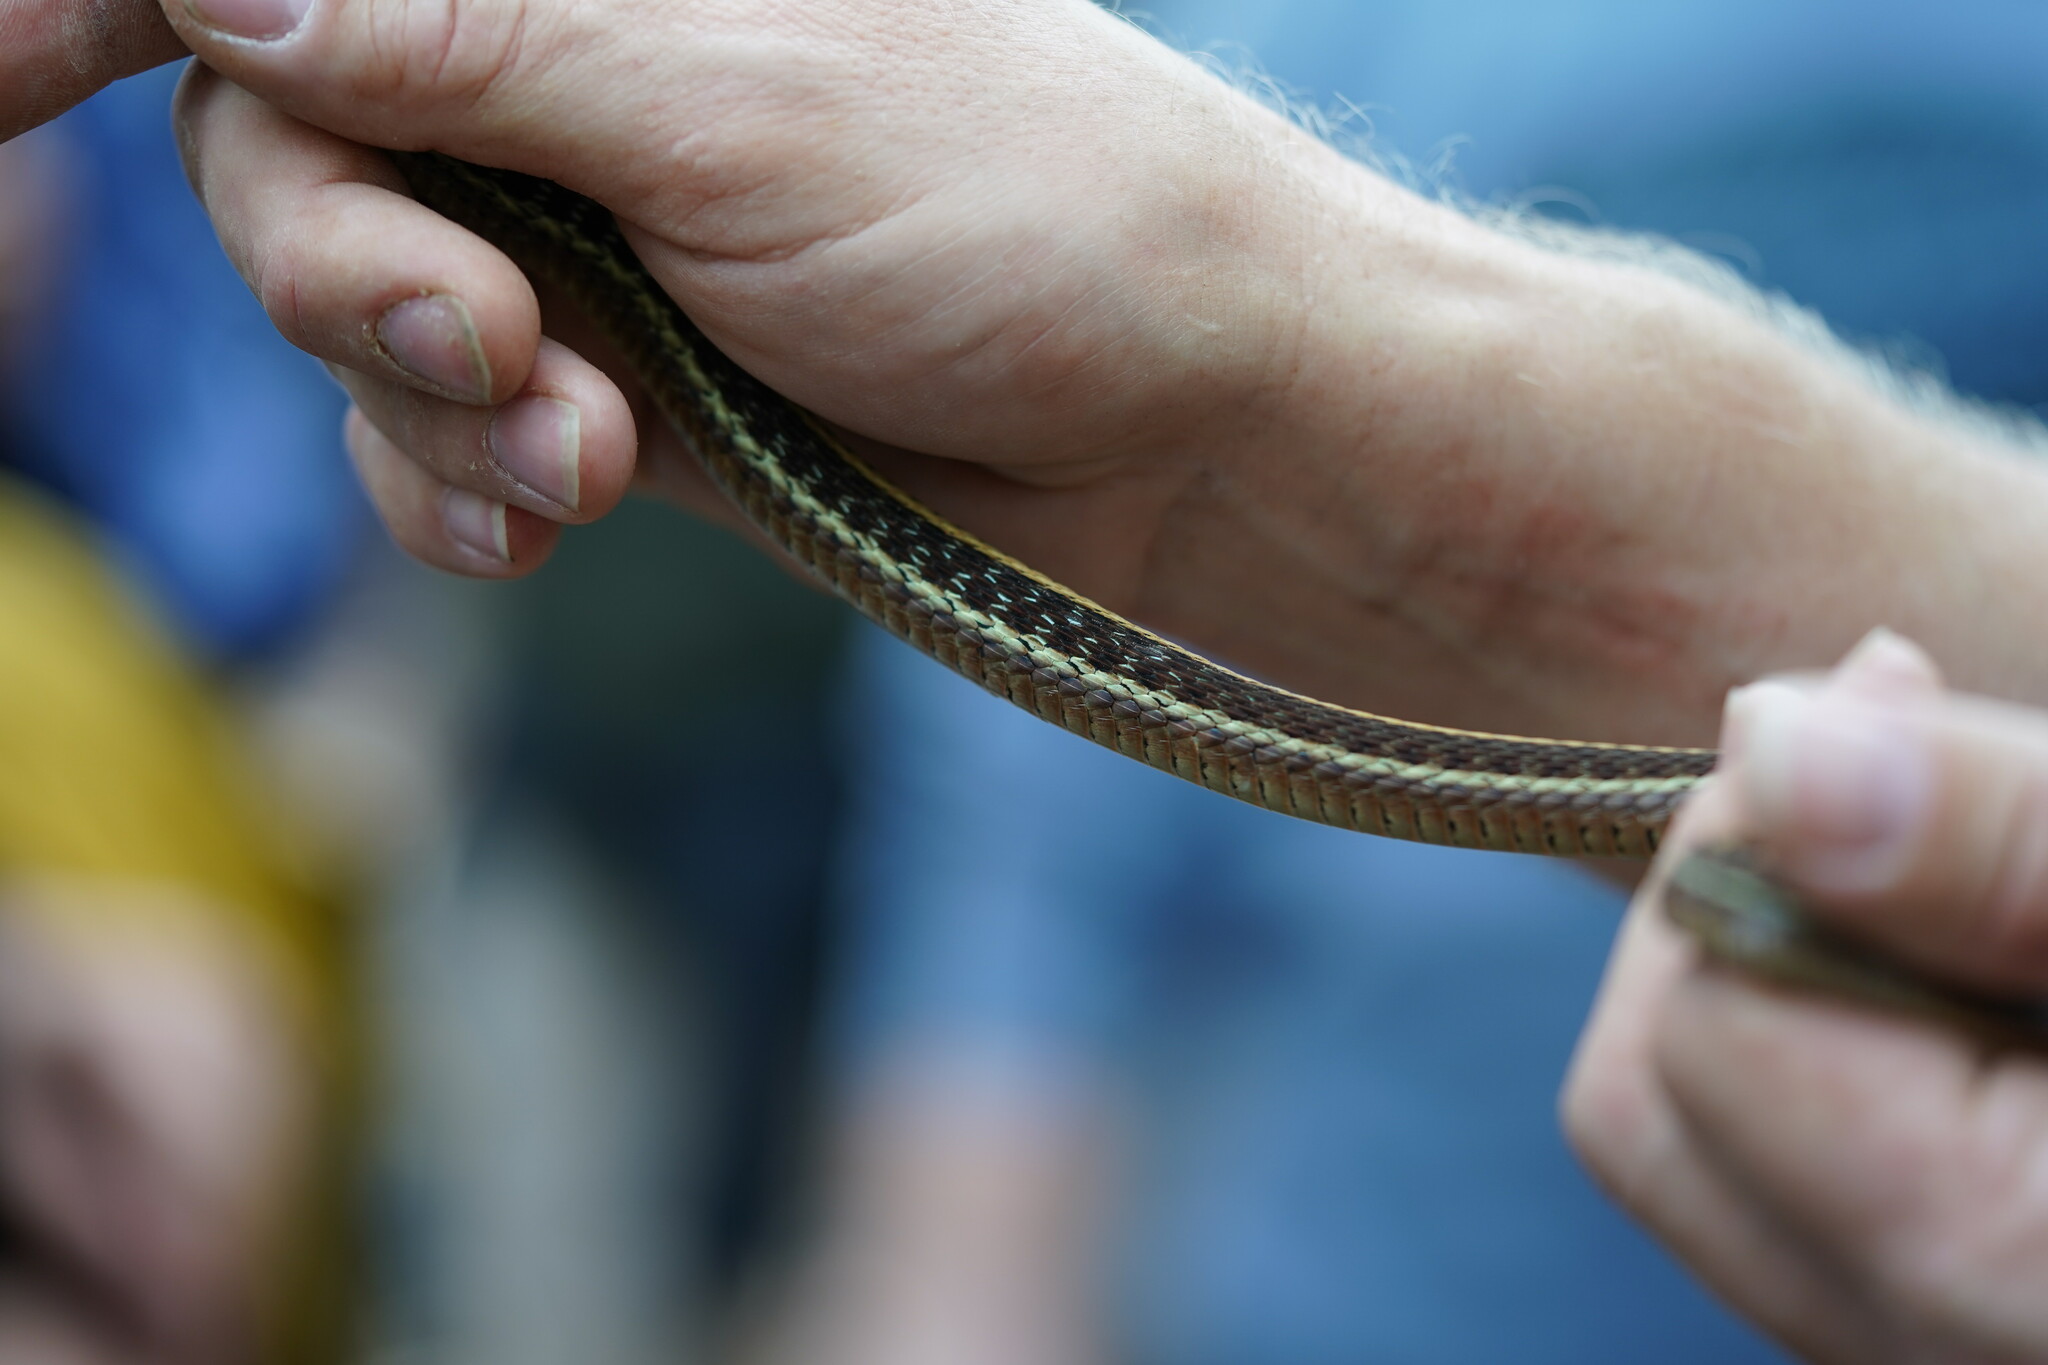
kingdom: Animalia
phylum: Chordata
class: Squamata
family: Colubridae
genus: Thamnophis
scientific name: Thamnophis sirtalis
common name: Common garter snake
